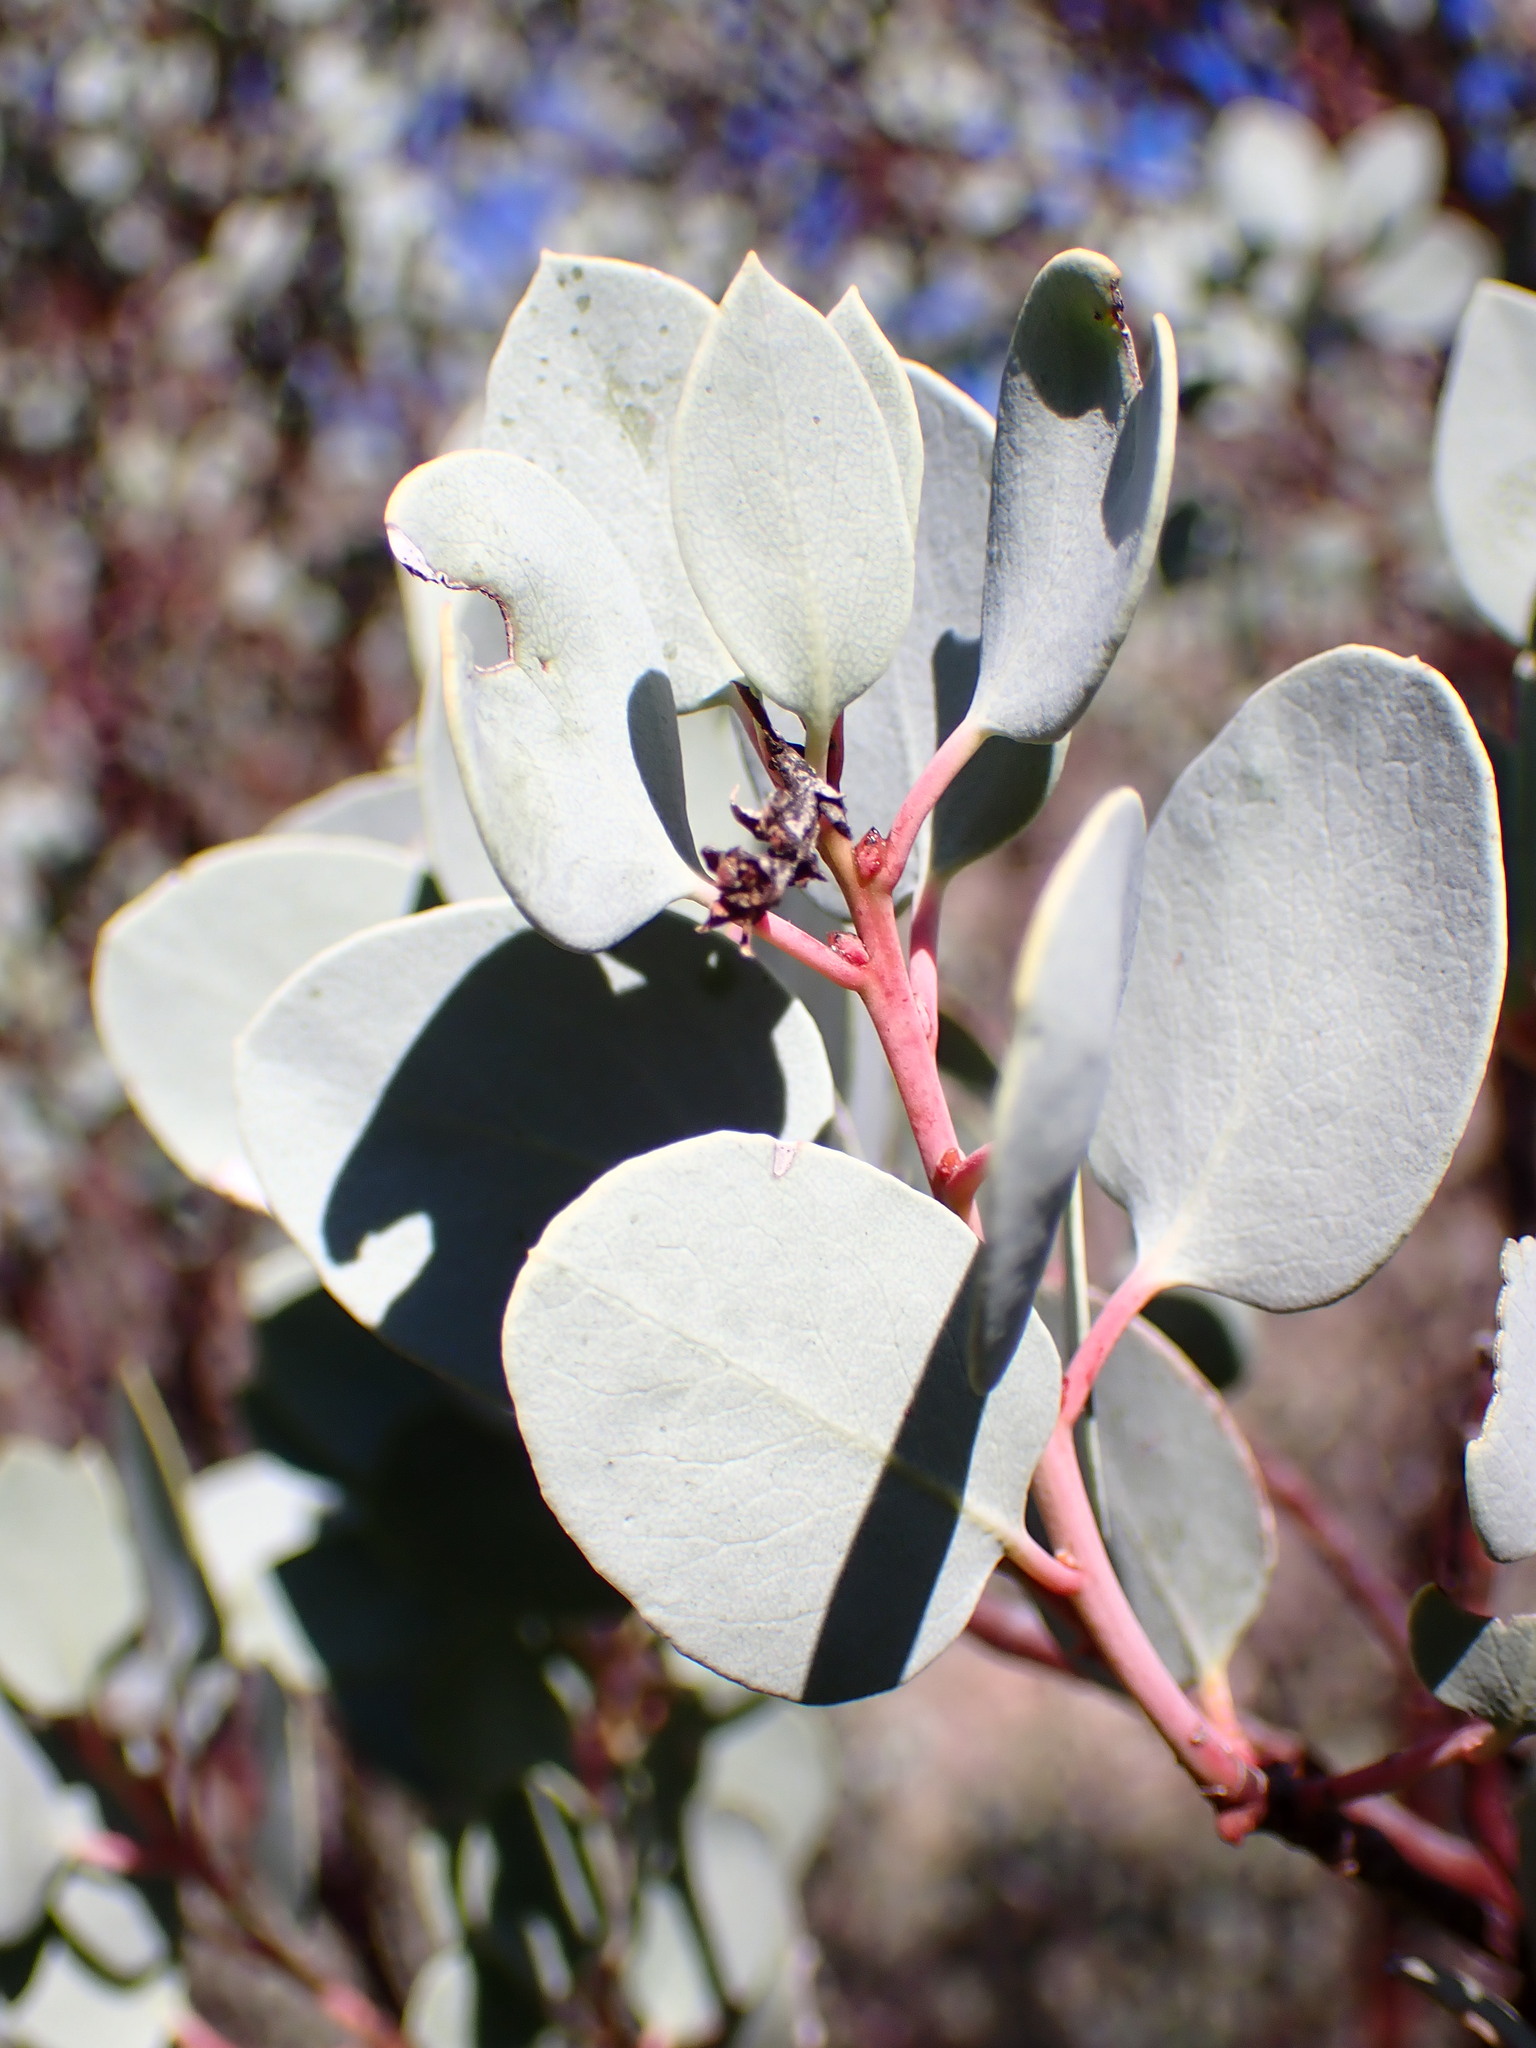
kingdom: Plantae
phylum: Tracheophyta
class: Magnoliopsida
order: Ericales
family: Ericaceae
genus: Arctostaphylos
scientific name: Arctostaphylos glauca
